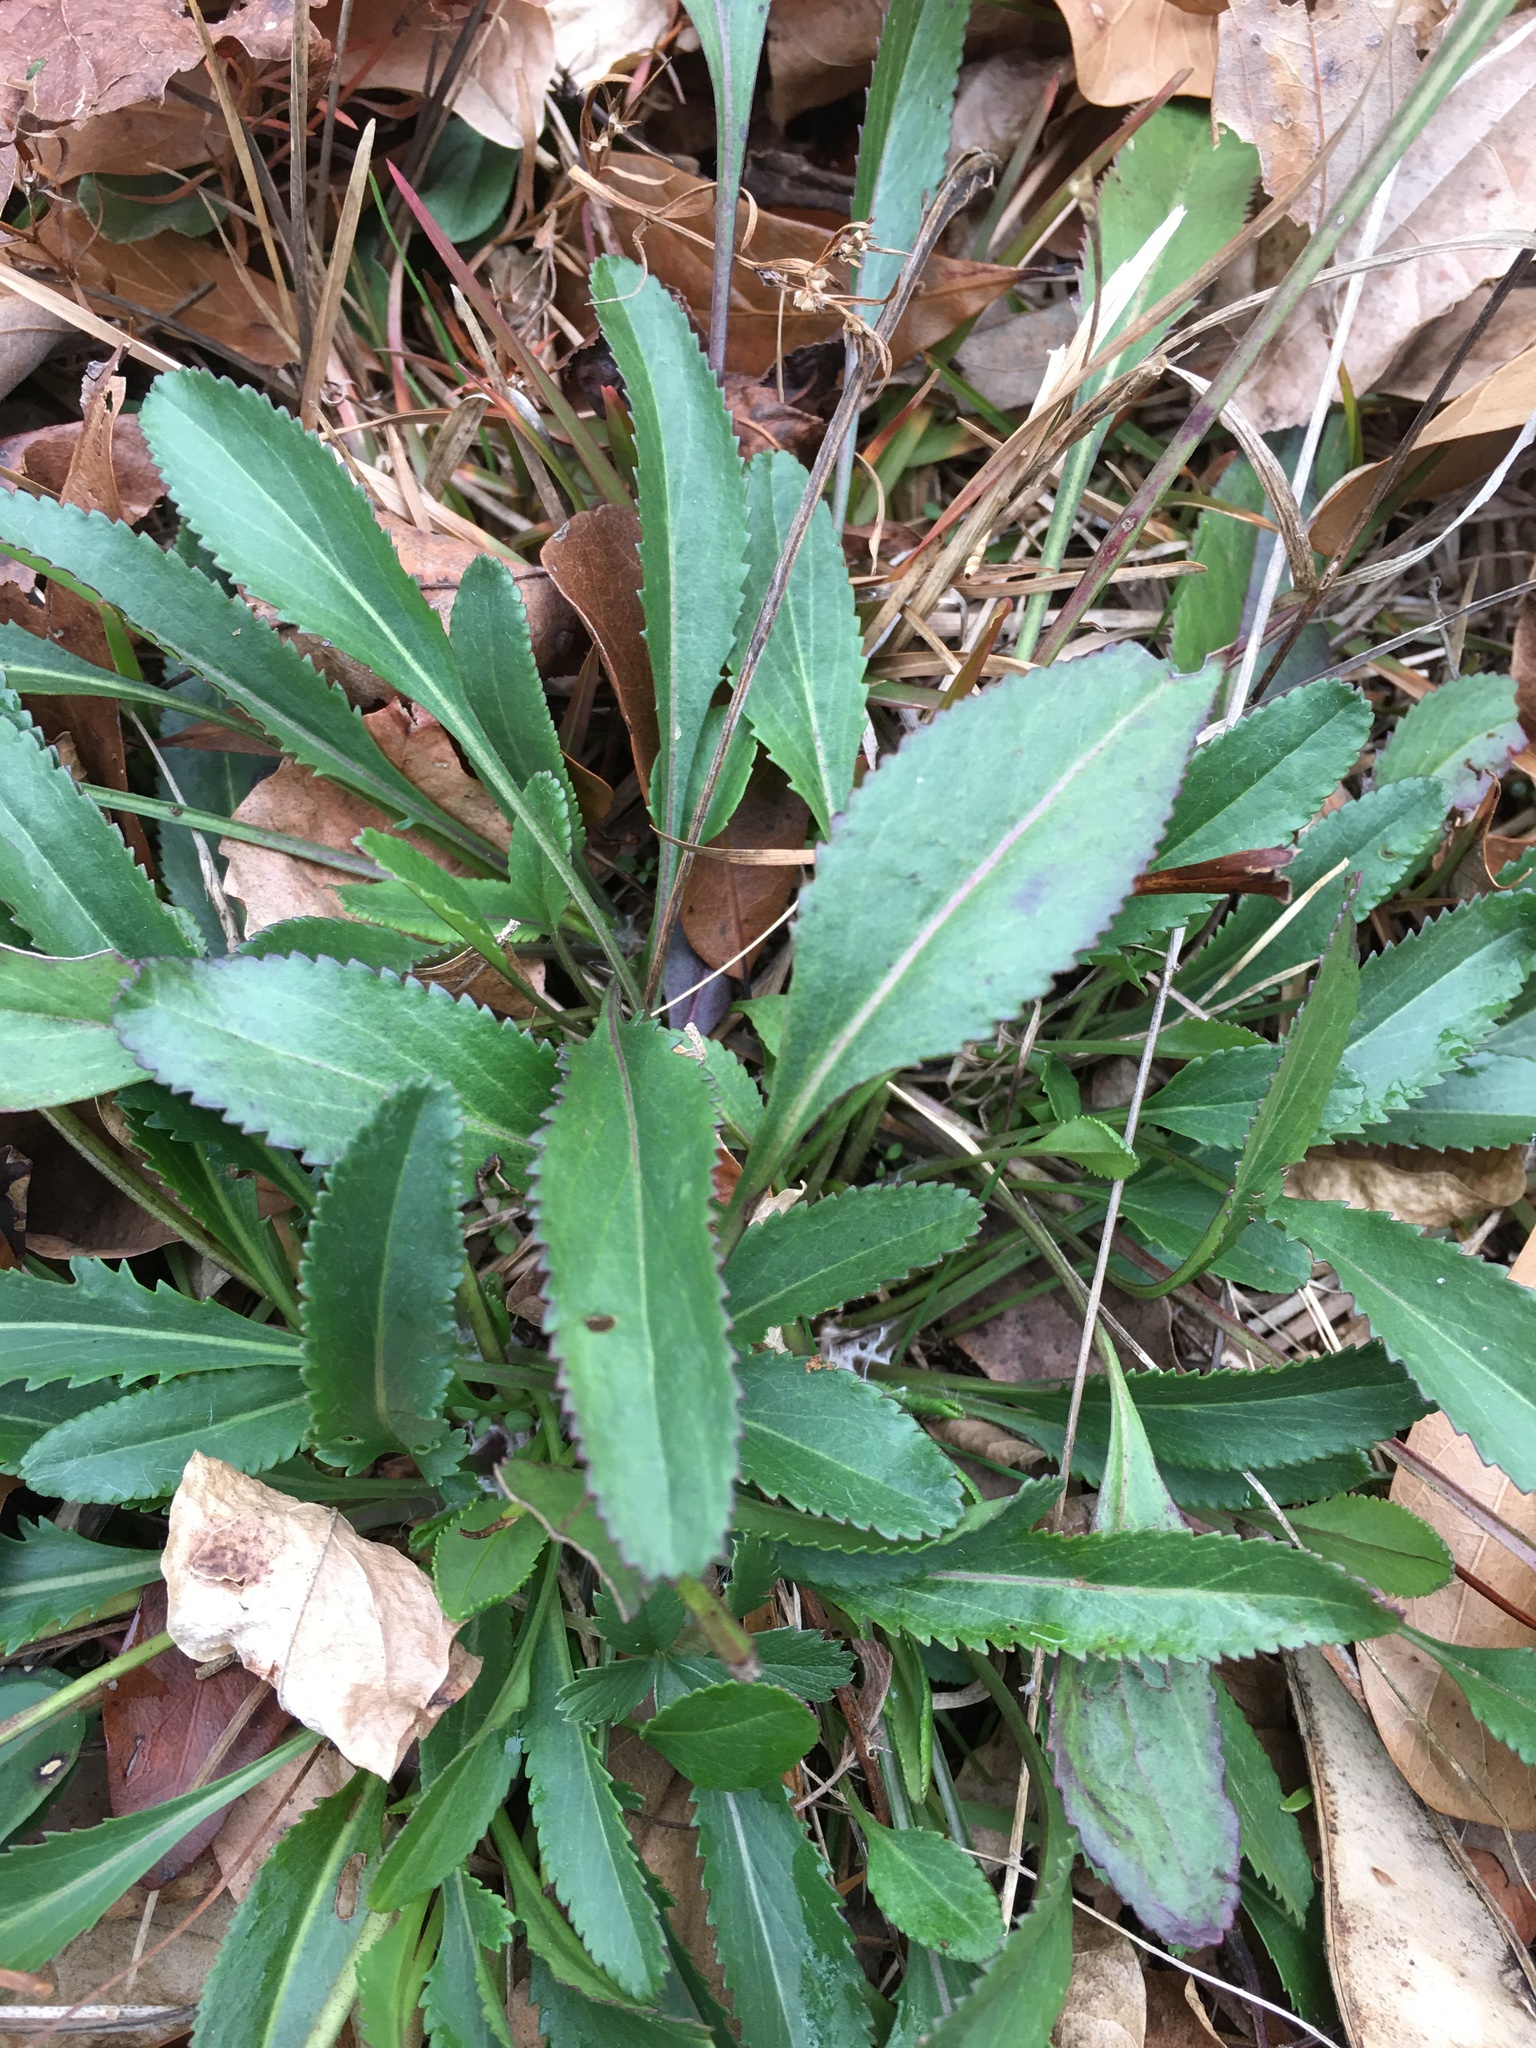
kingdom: Plantae
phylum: Tracheophyta
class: Magnoliopsida
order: Asterales
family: Asteraceae
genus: Packera
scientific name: Packera anonyma
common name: Small ragwort
